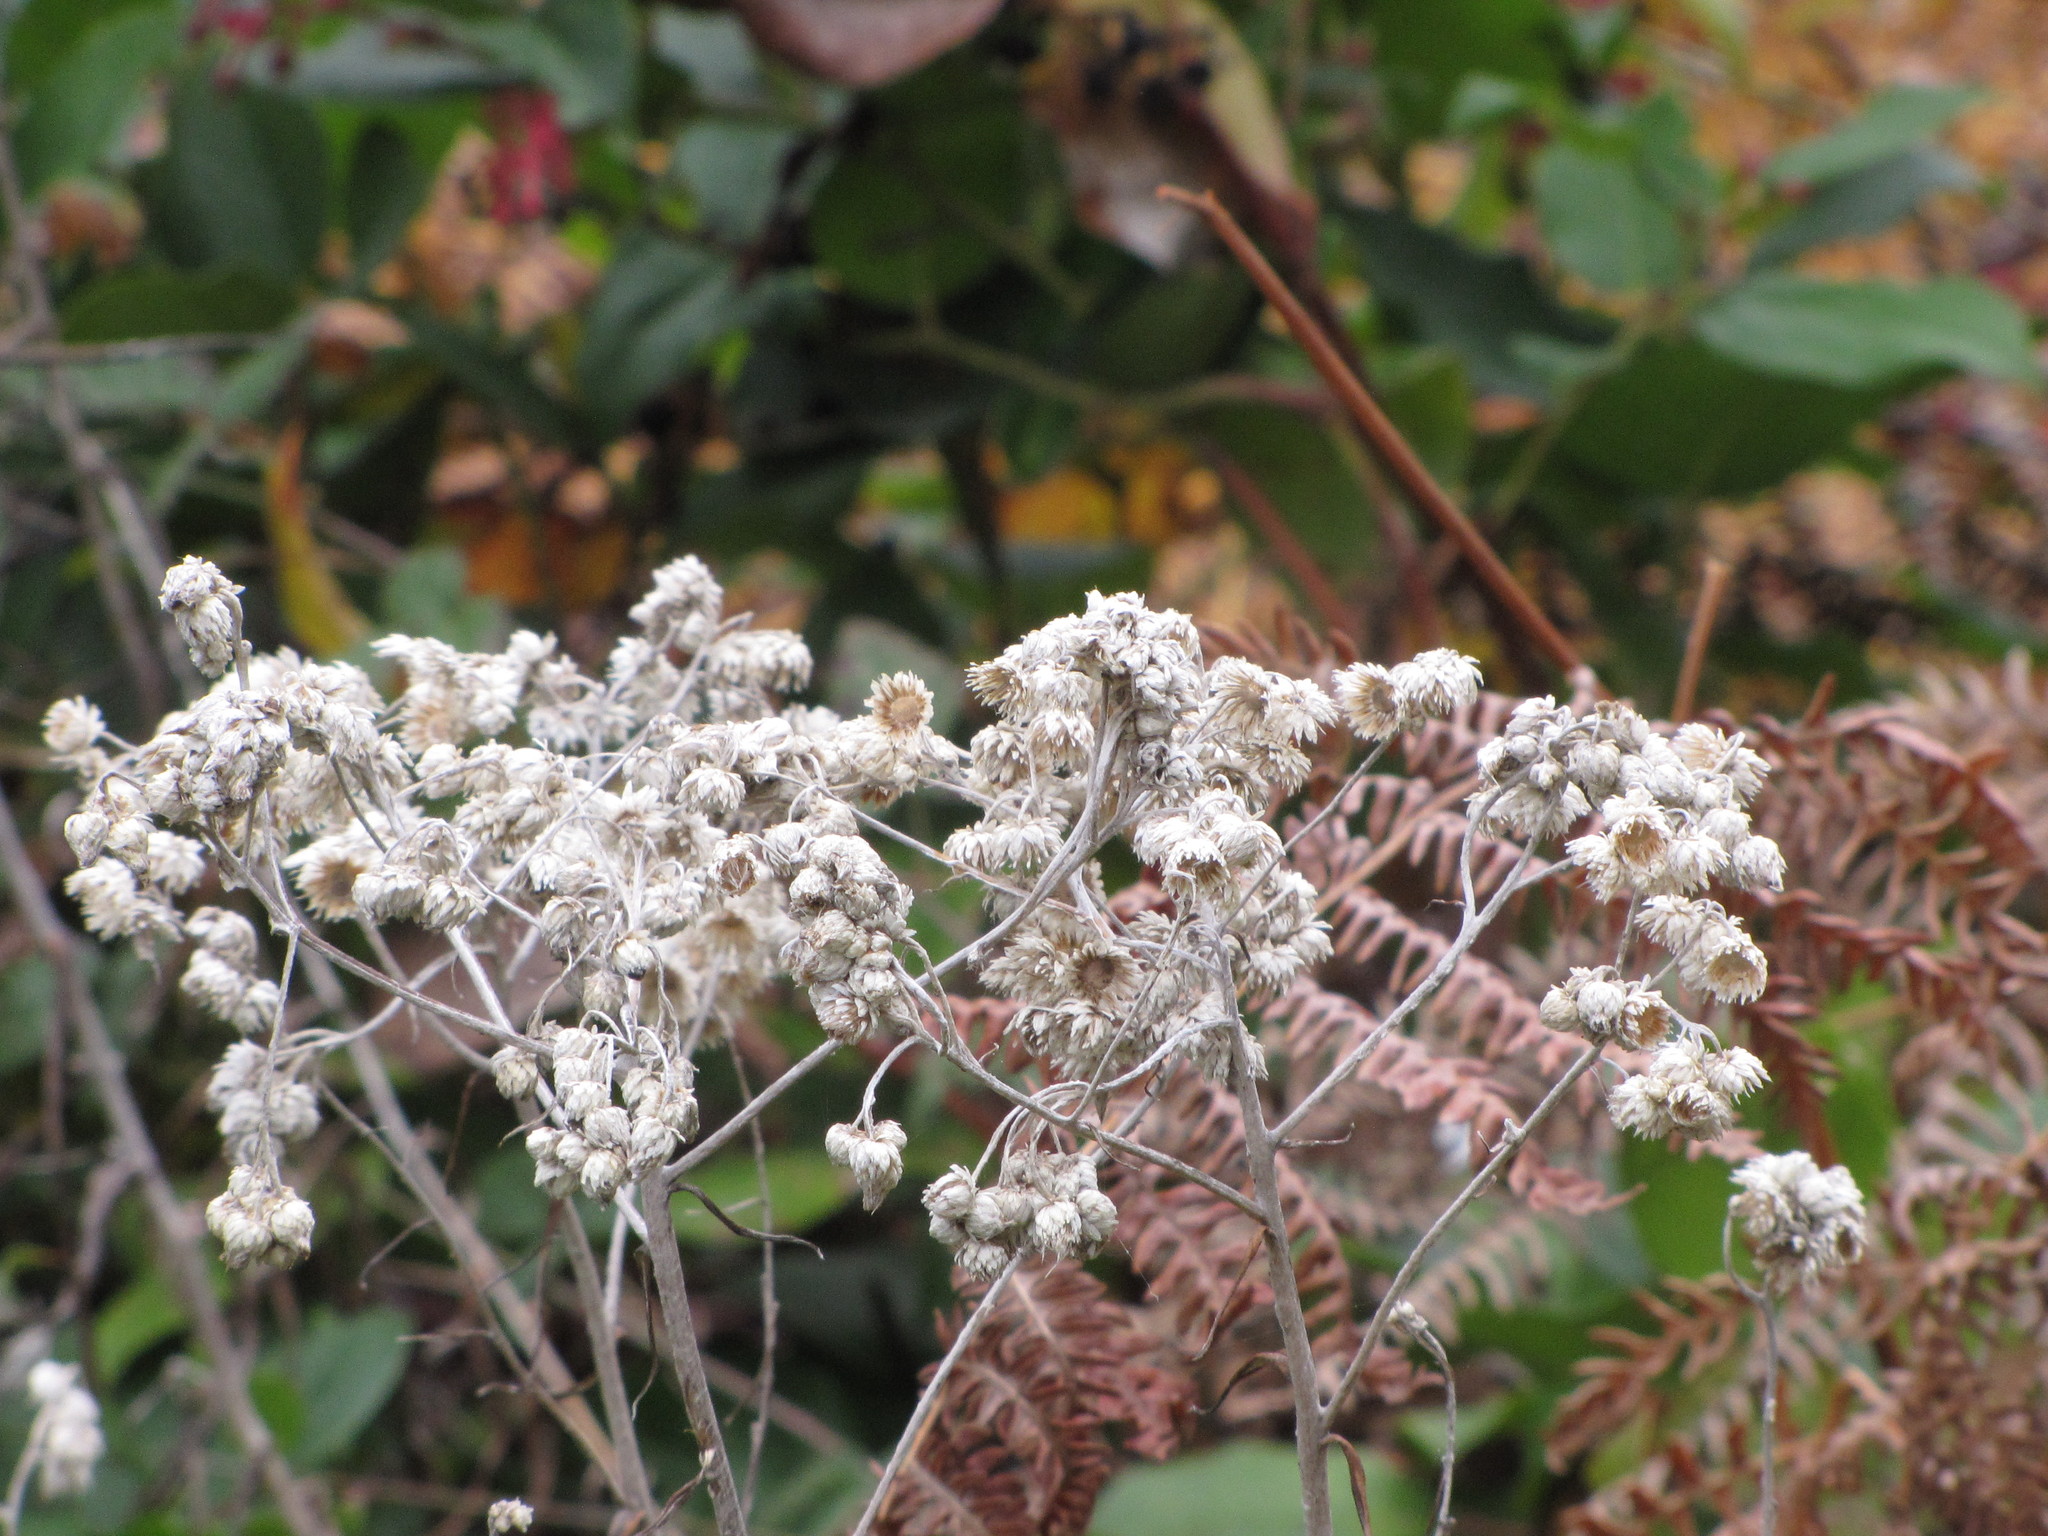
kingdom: Plantae
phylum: Tracheophyta
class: Magnoliopsida
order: Asterales
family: Asteraceae
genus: Anaphalis
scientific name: Anaphalis margaritacea
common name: Pearly everlasting
